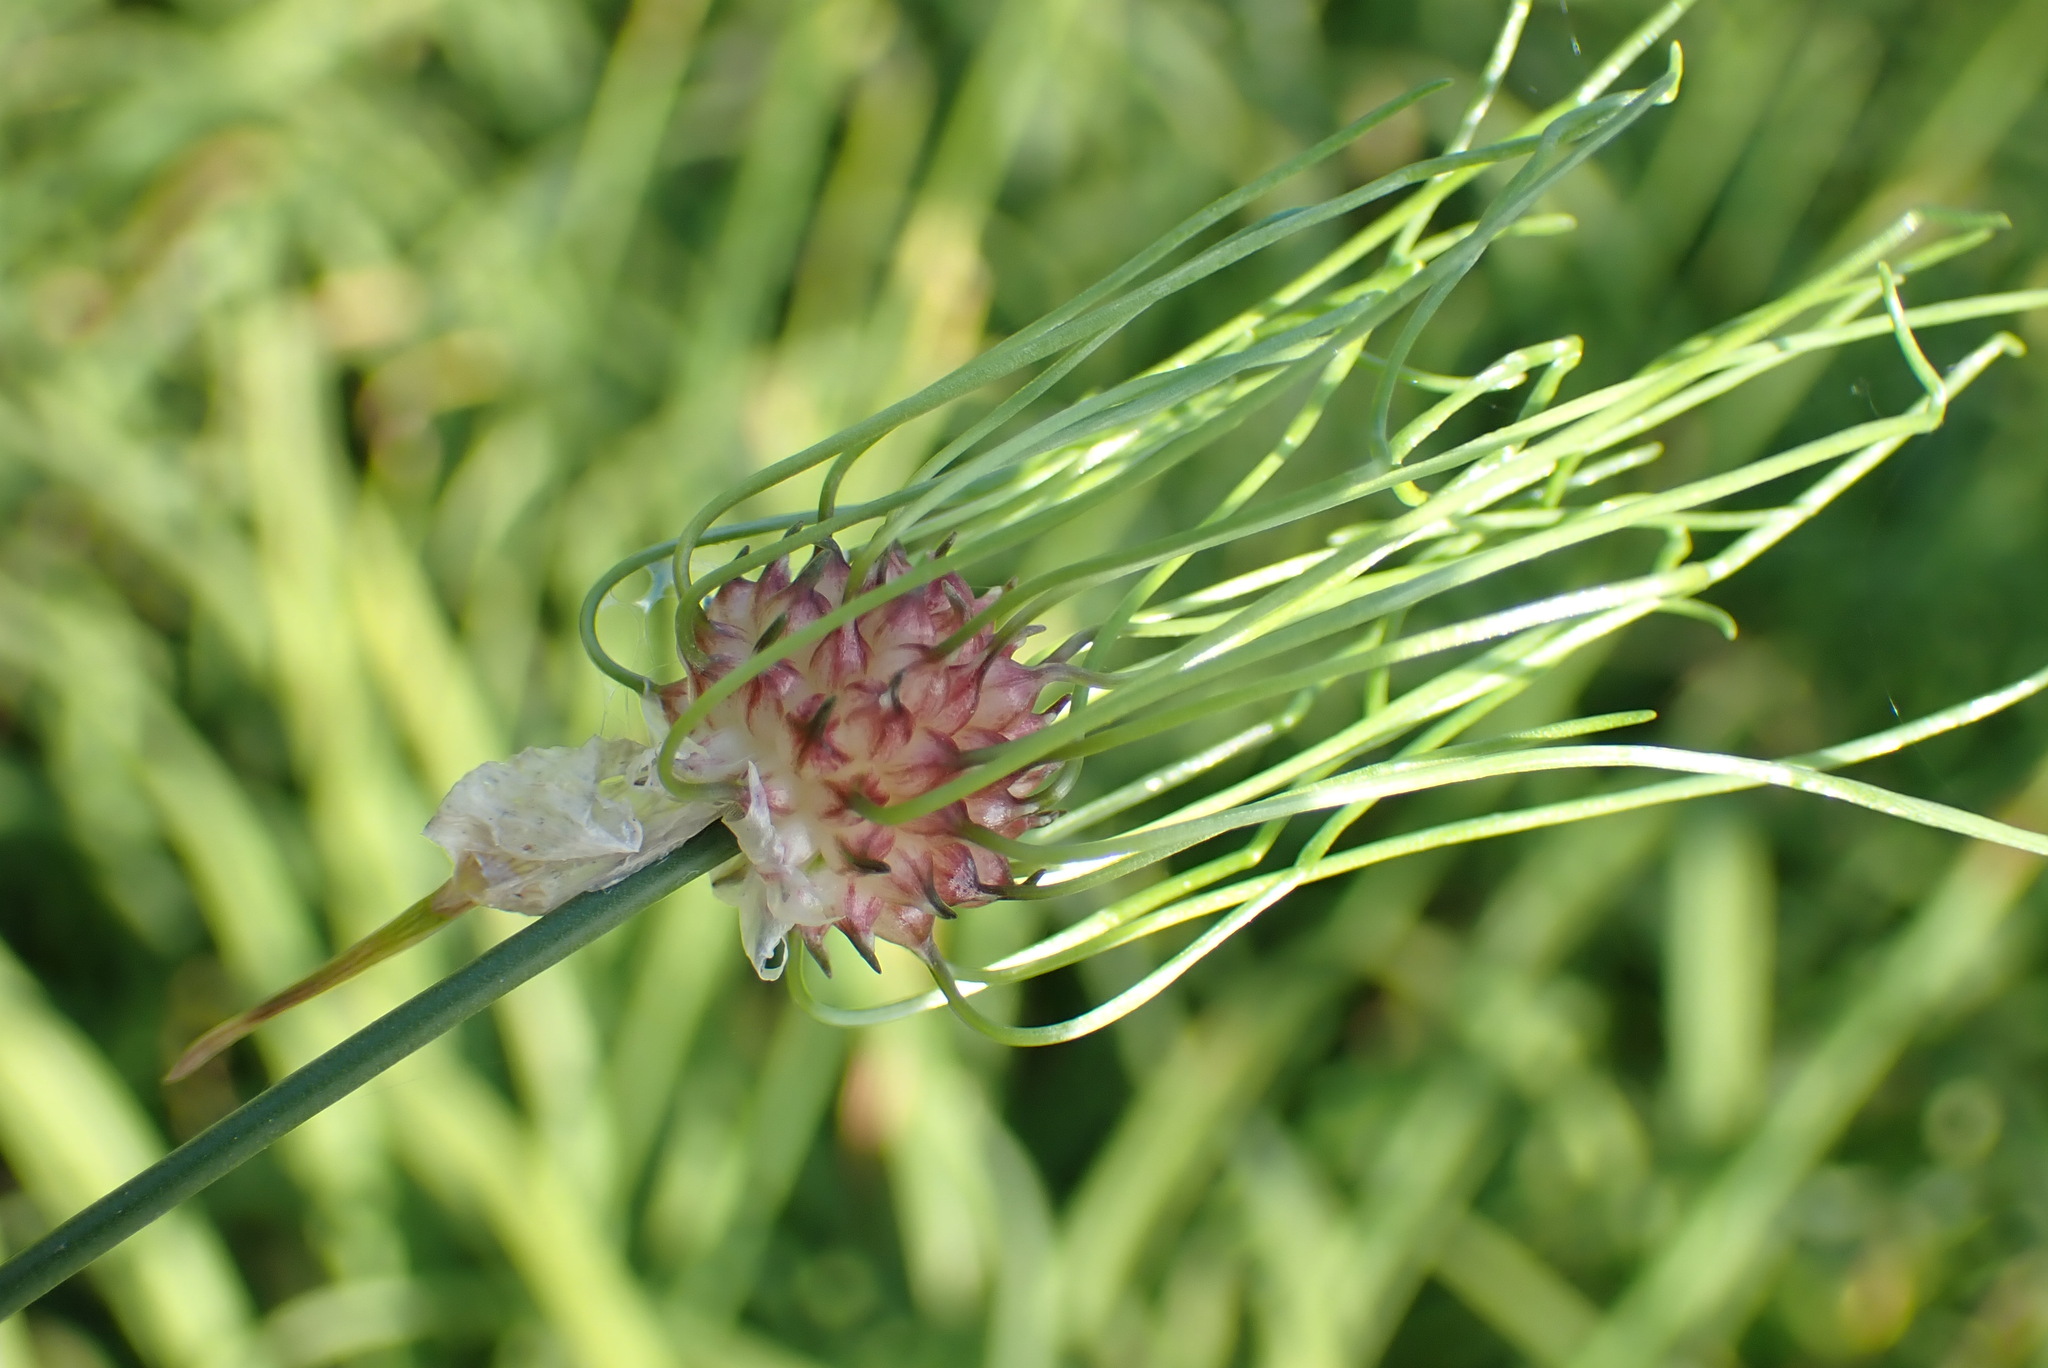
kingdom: Plantae
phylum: Tracheophyta
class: Liliopsida
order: Asparagales
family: Amaryllidaceae
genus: Allium
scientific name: Allium vineale
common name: Crow garlic
